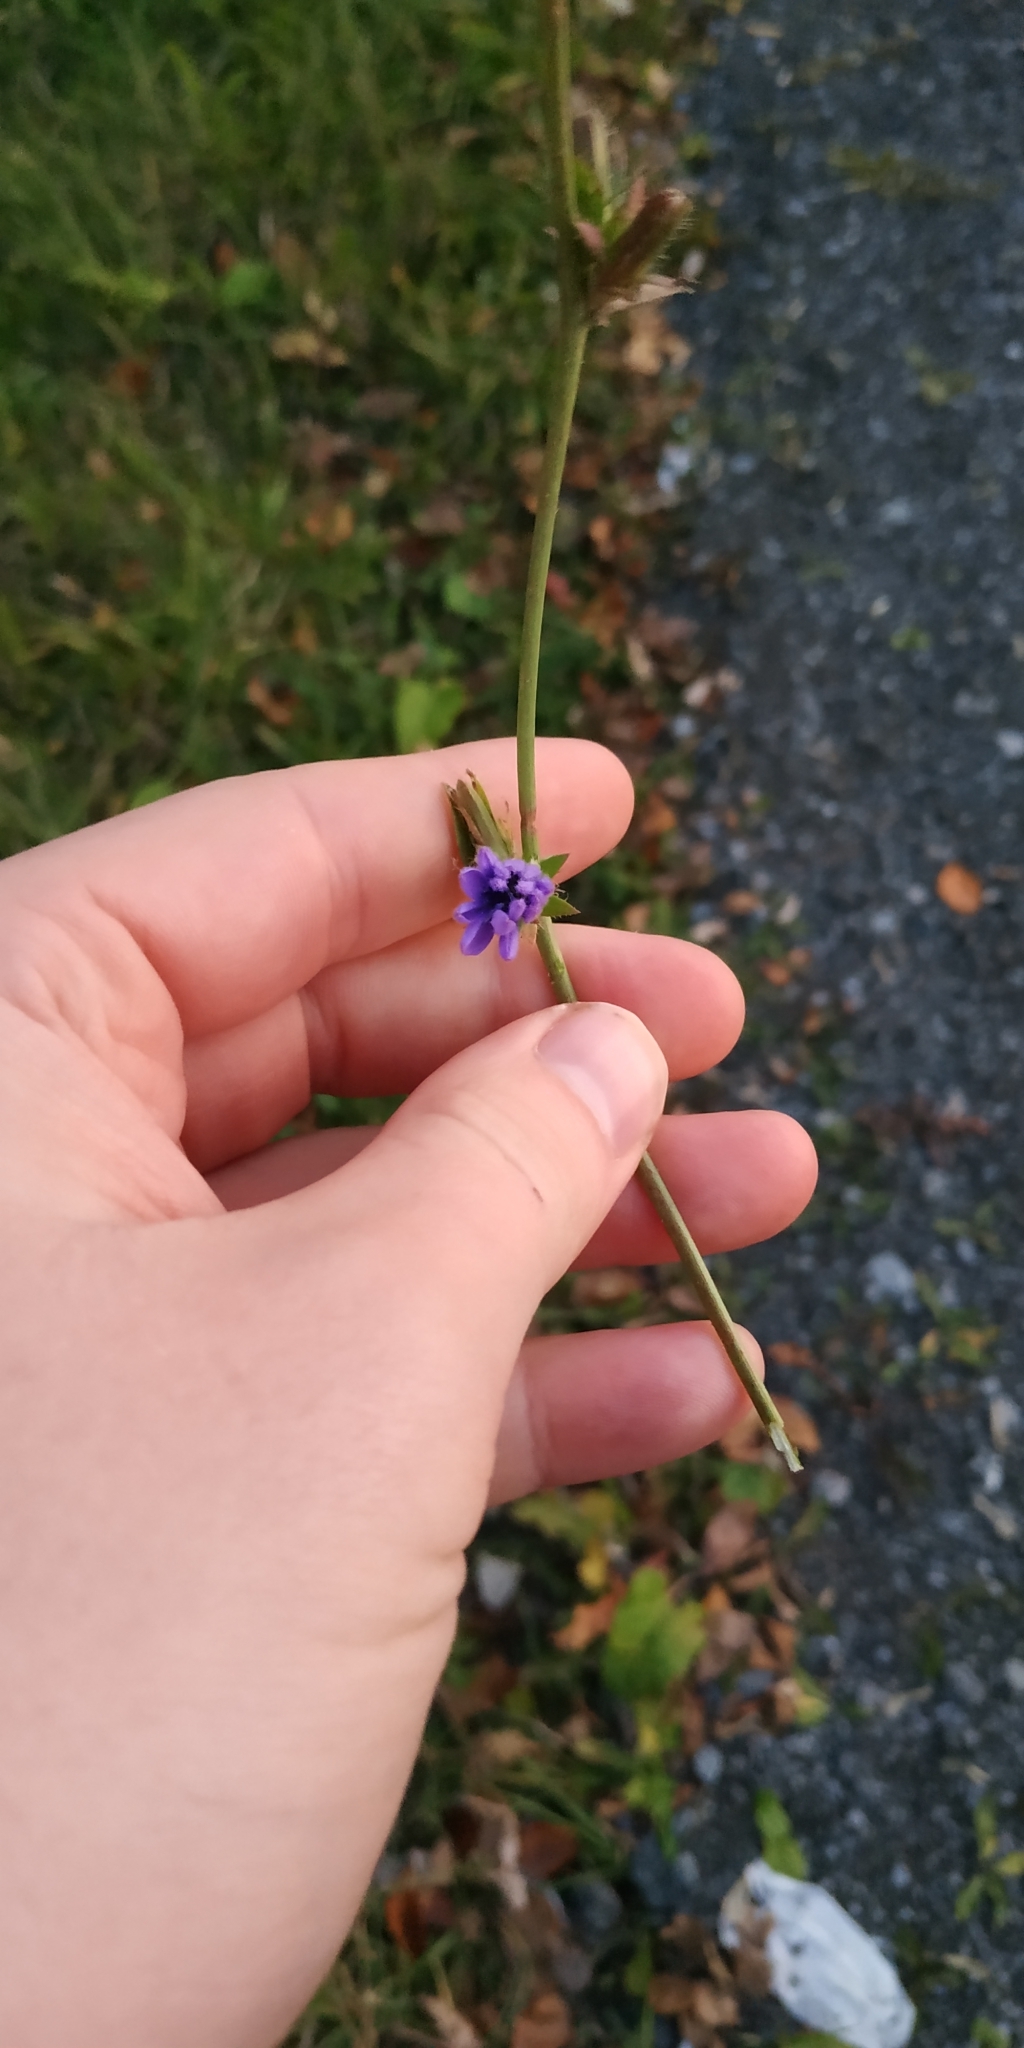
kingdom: Plantae
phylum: Tracheophyta
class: Magnoliopsida
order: Asterales
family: Asteraceae
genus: Cichorium
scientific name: Cichorium intybus
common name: Chicory
